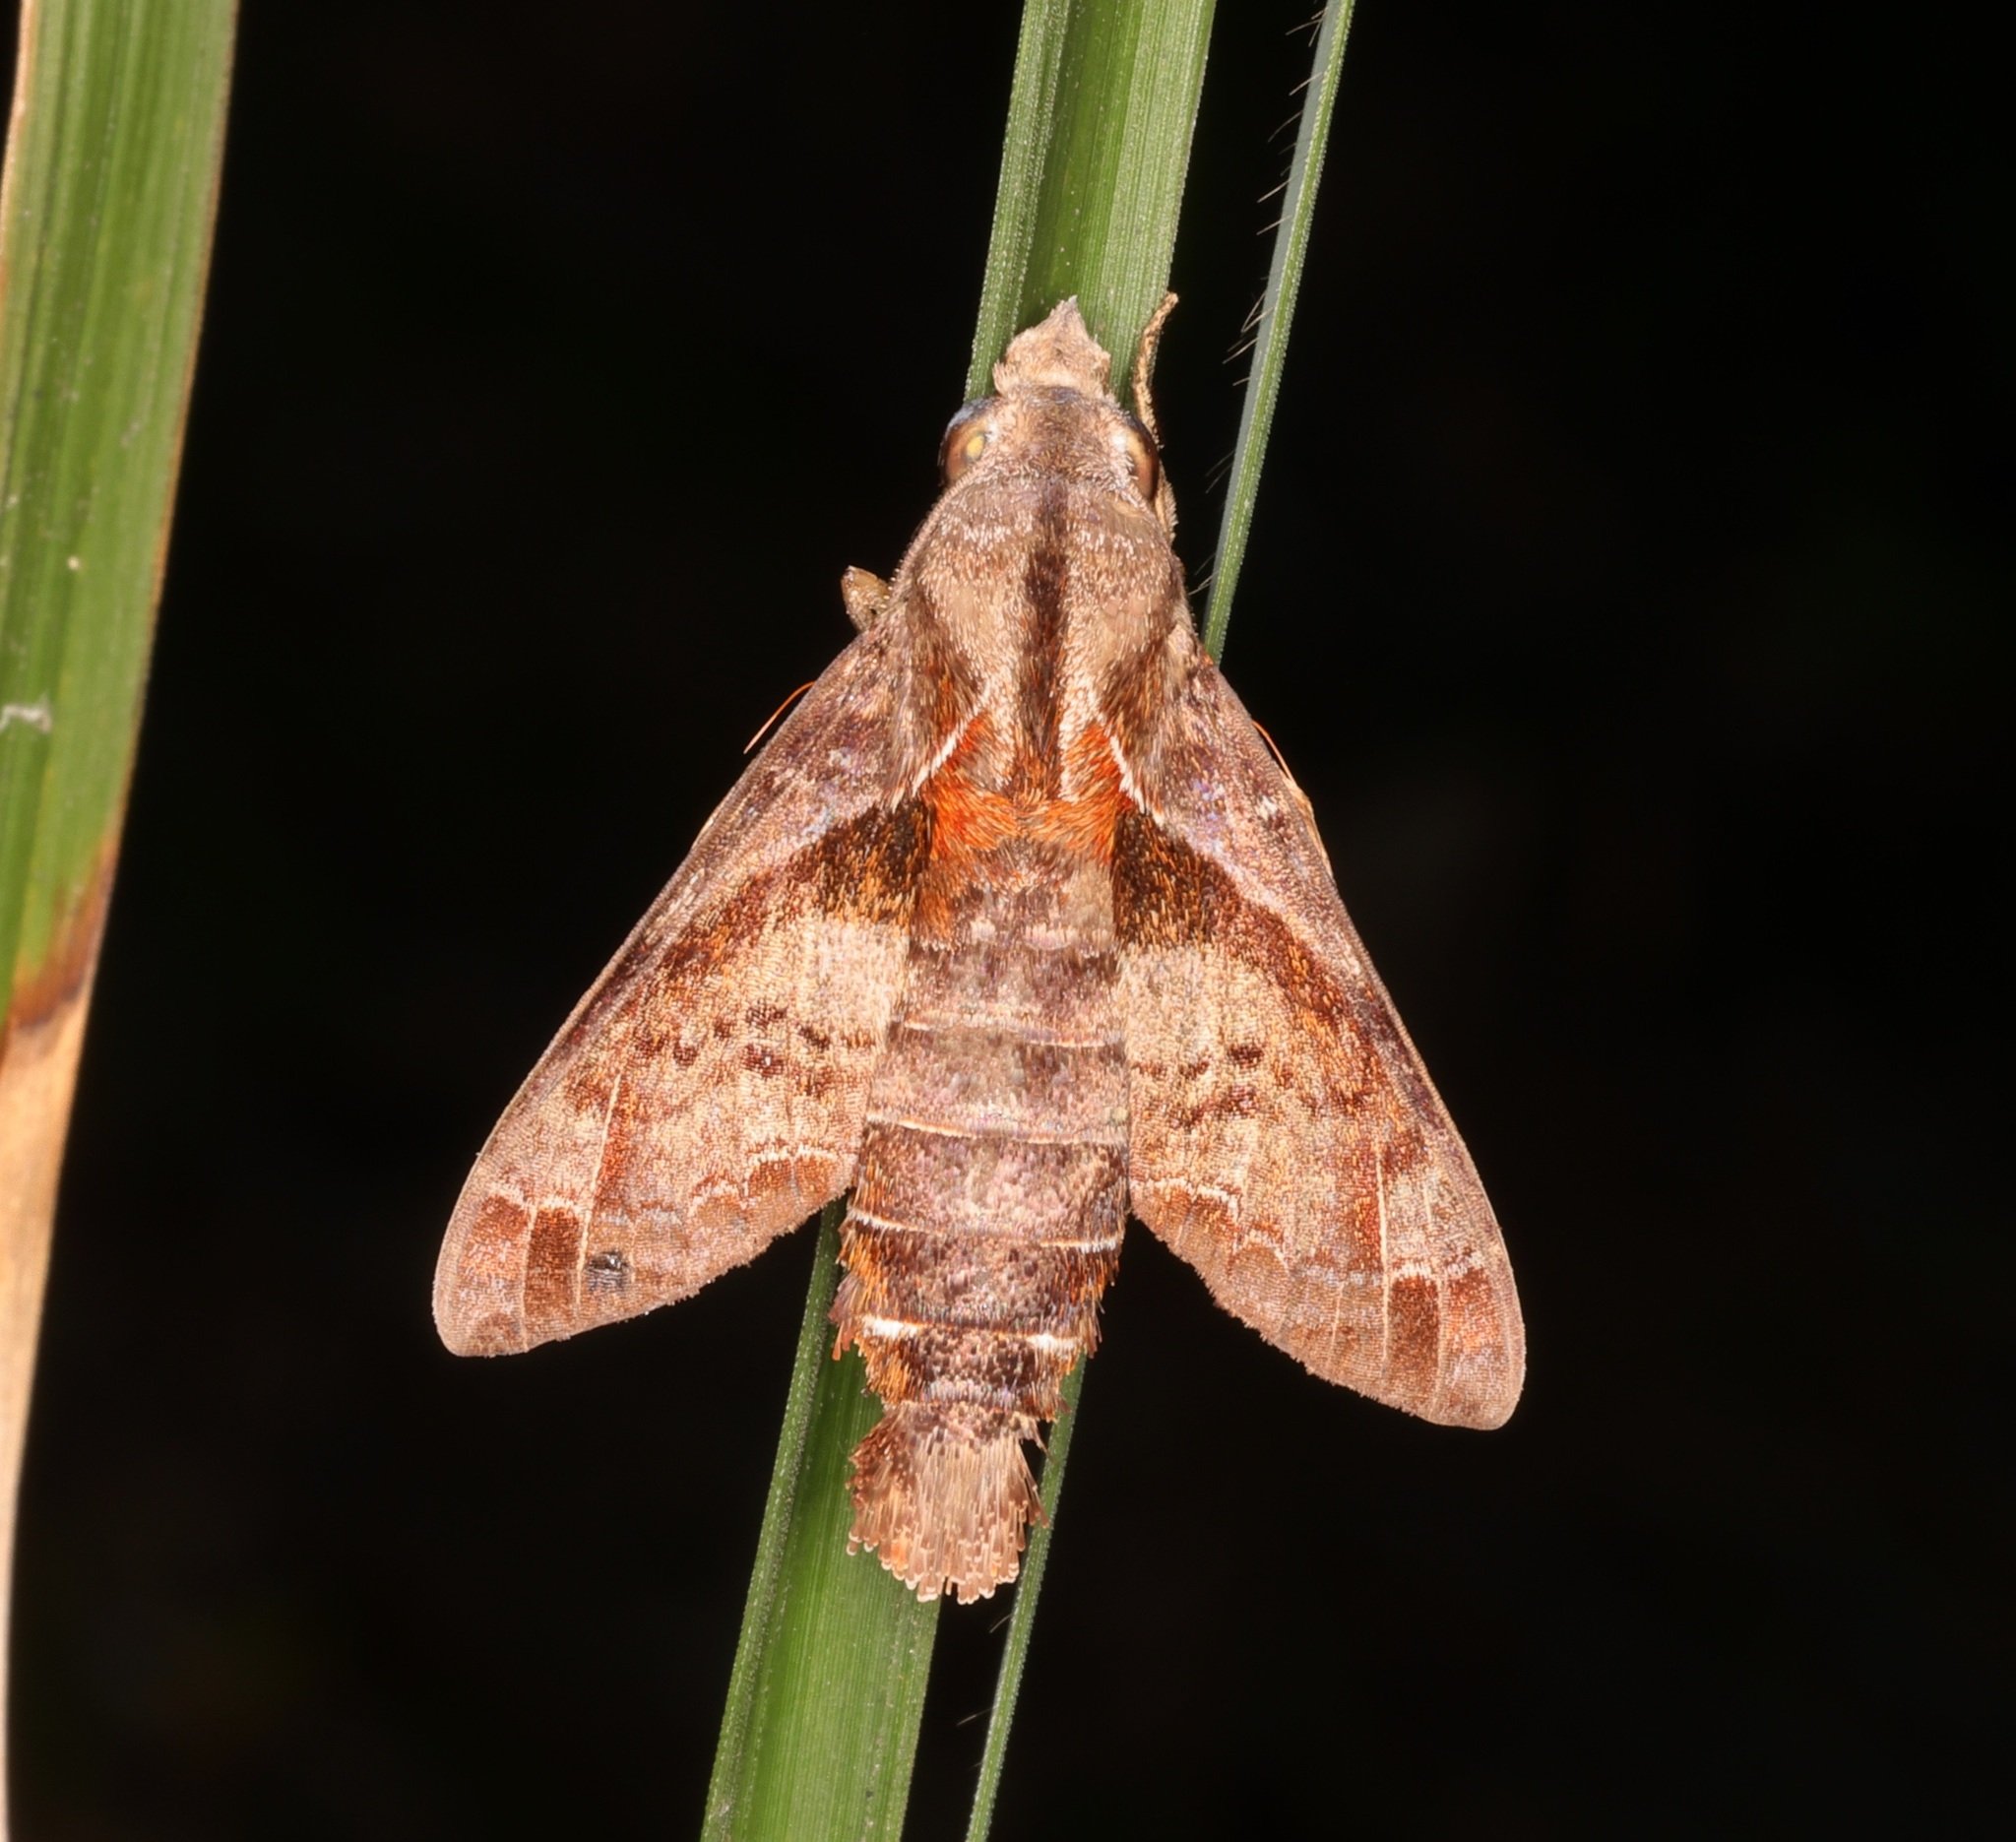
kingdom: Animalia
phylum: Arthropoda
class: Insecta
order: Lepidoptera
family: Sphingidae
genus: Macroglossum
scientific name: Macroglossum fritzei
